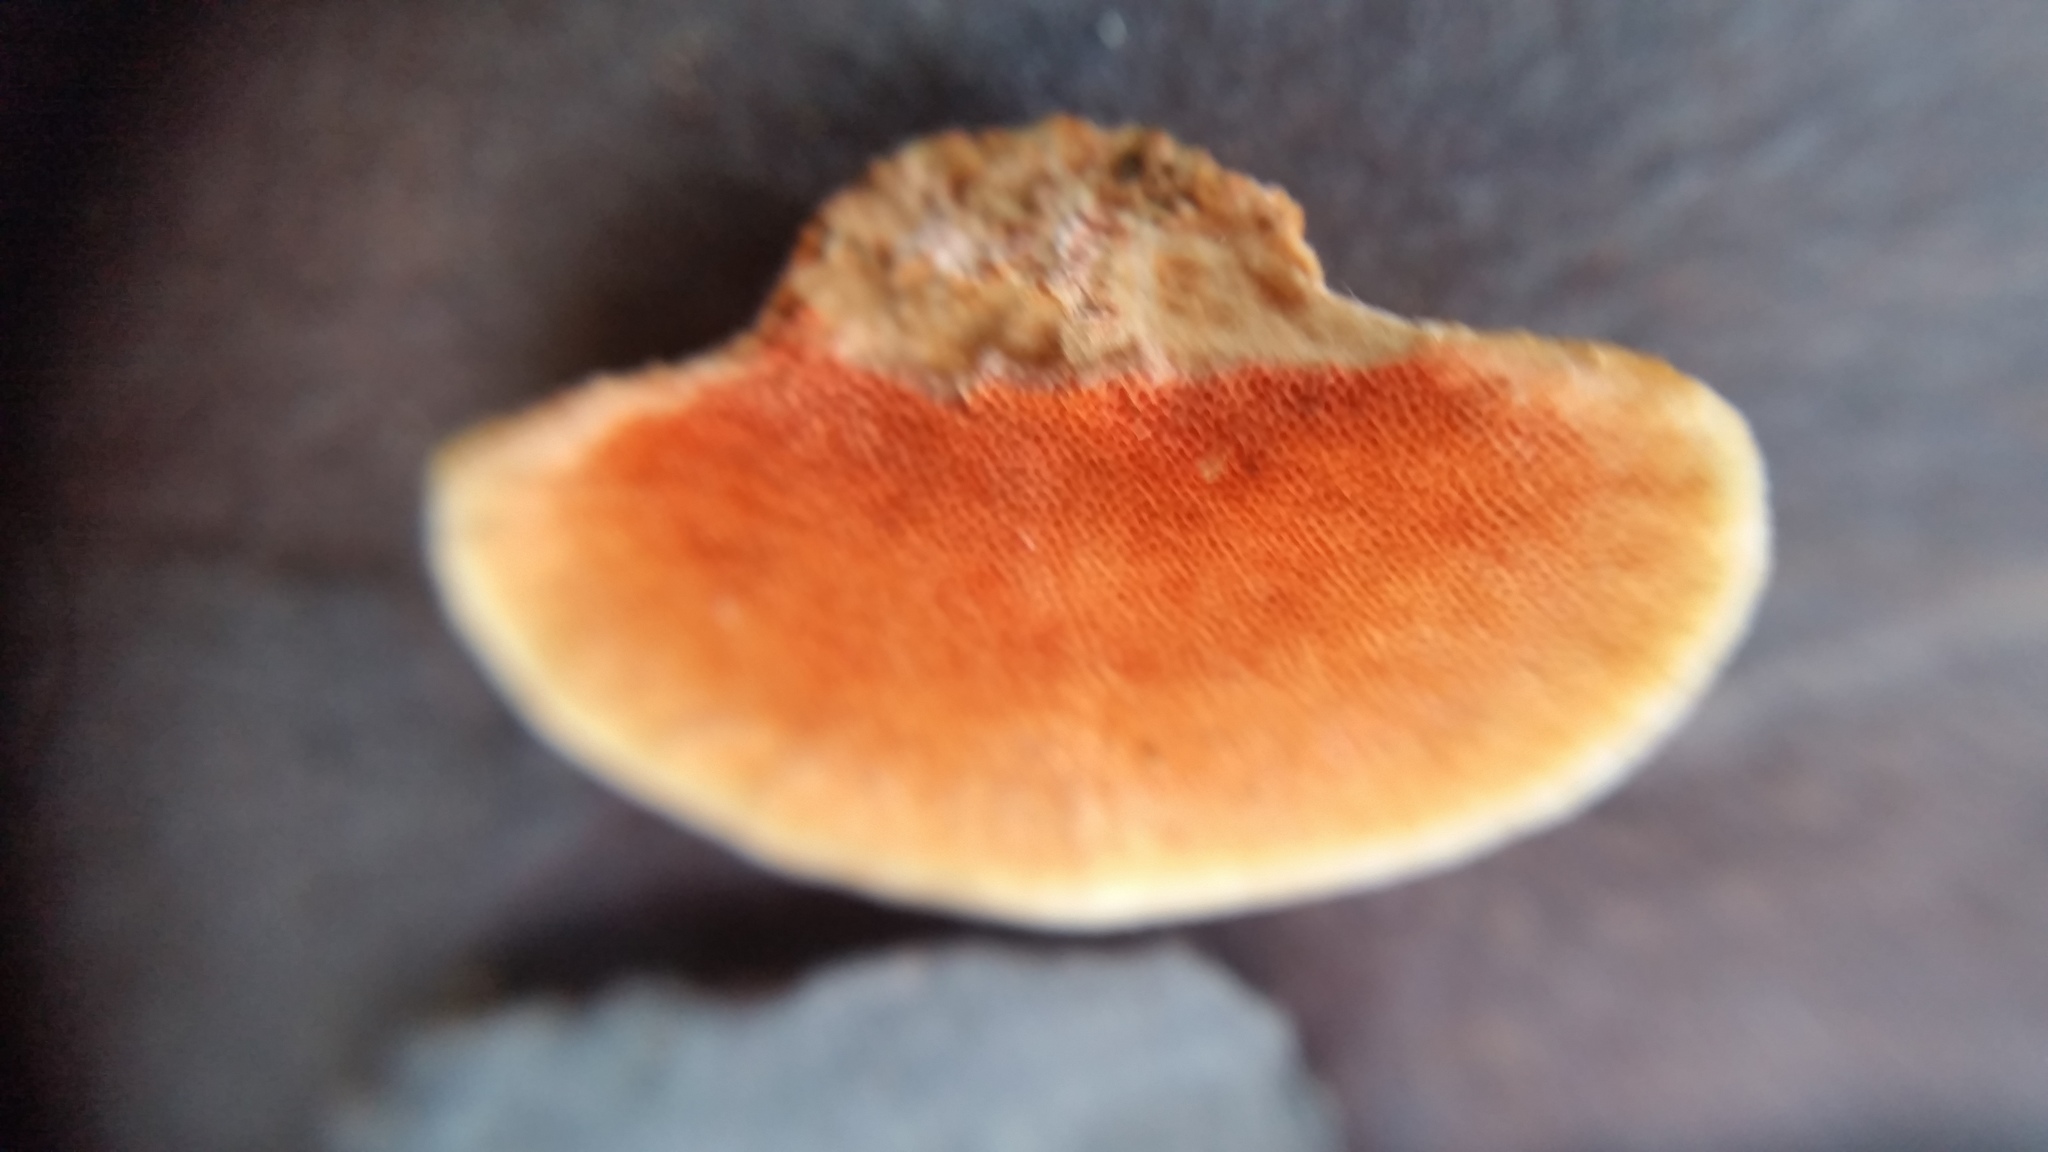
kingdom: Fungi
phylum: Basidiomycota
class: Agaricomycetes
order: Polyporales
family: Polyporaceae
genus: Trametes
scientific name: Trametes coccinea
